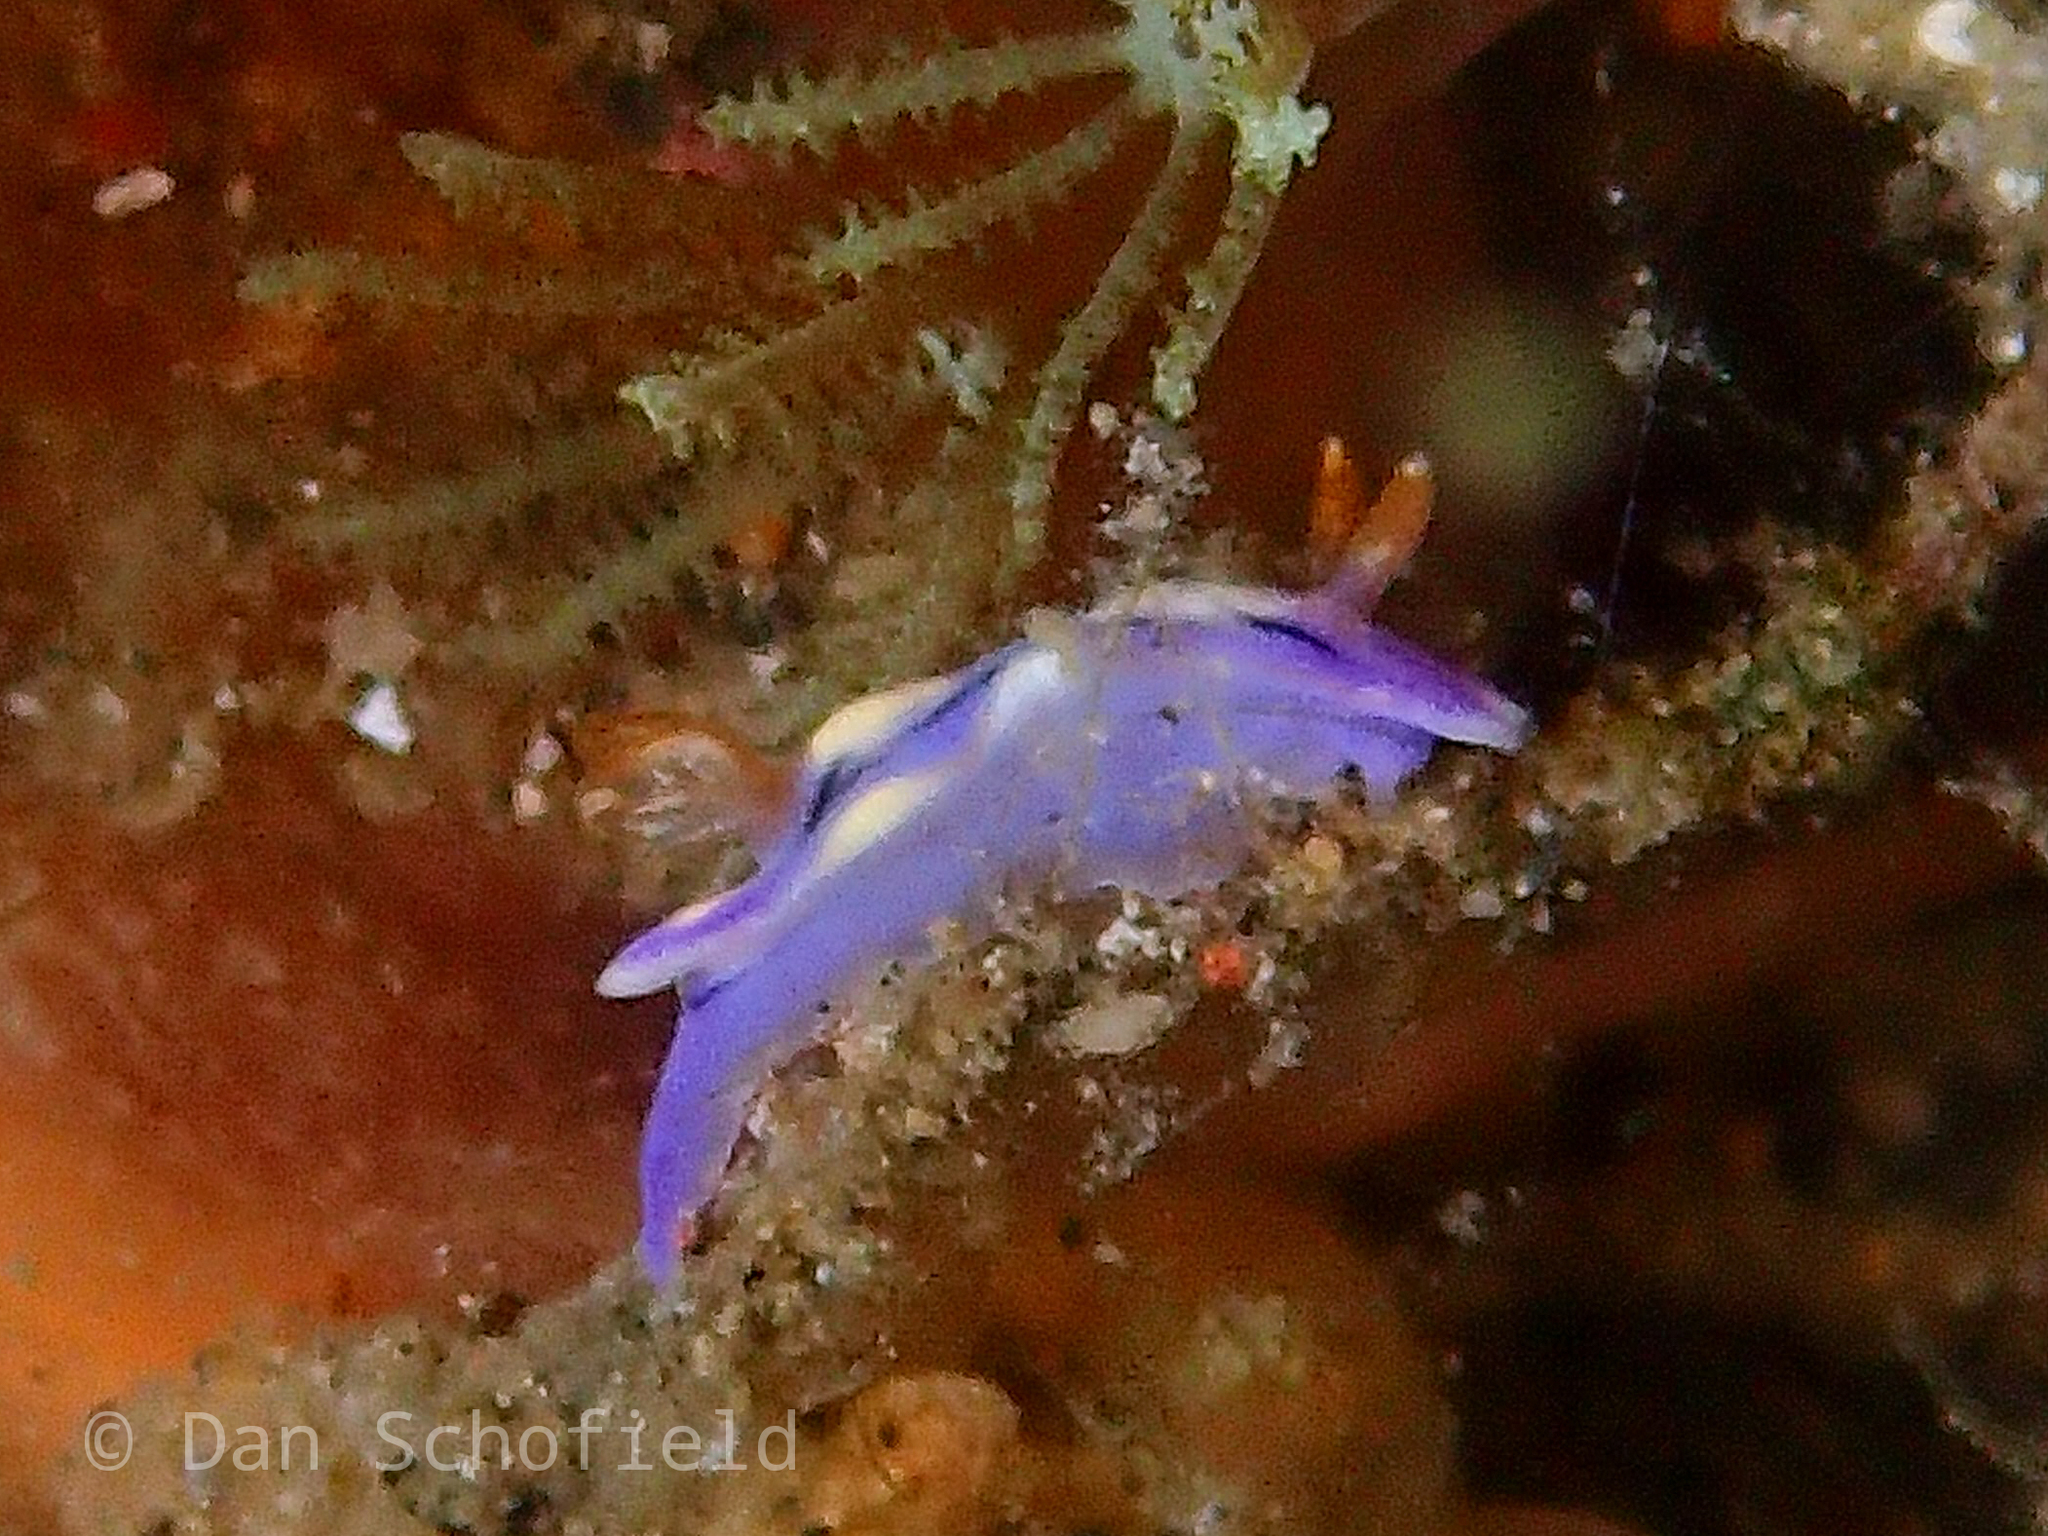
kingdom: Animalia
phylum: Mollusca
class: Gastropoda
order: Nudibranchia
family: Chromodorididae
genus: Hypselodoris
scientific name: Hypselodoris zephyra
